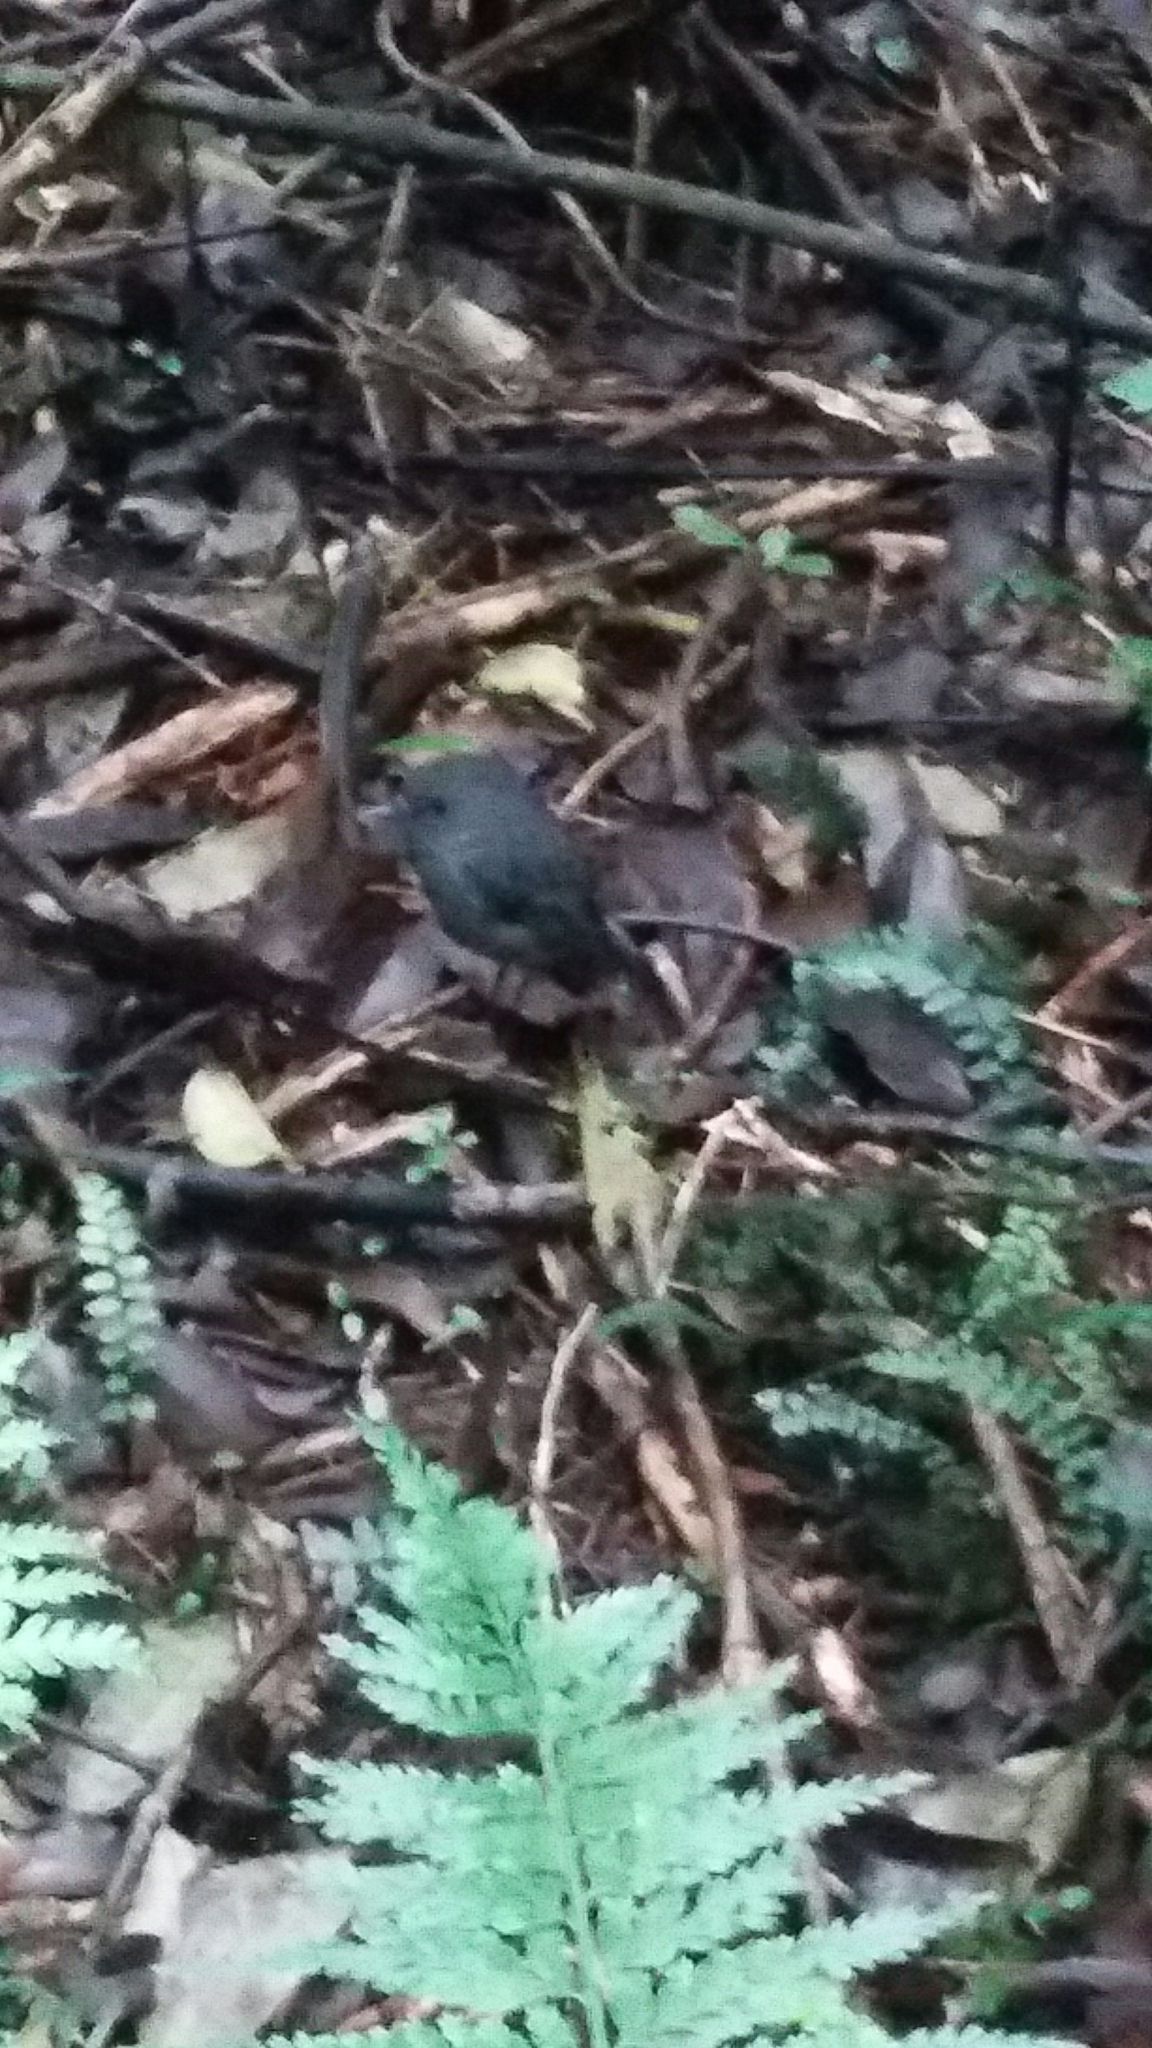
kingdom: Animalia
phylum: Chordata
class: Aves
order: Passeriformes
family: Petroicidae
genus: Petroica
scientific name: Petroica australis
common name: New zealand robin
